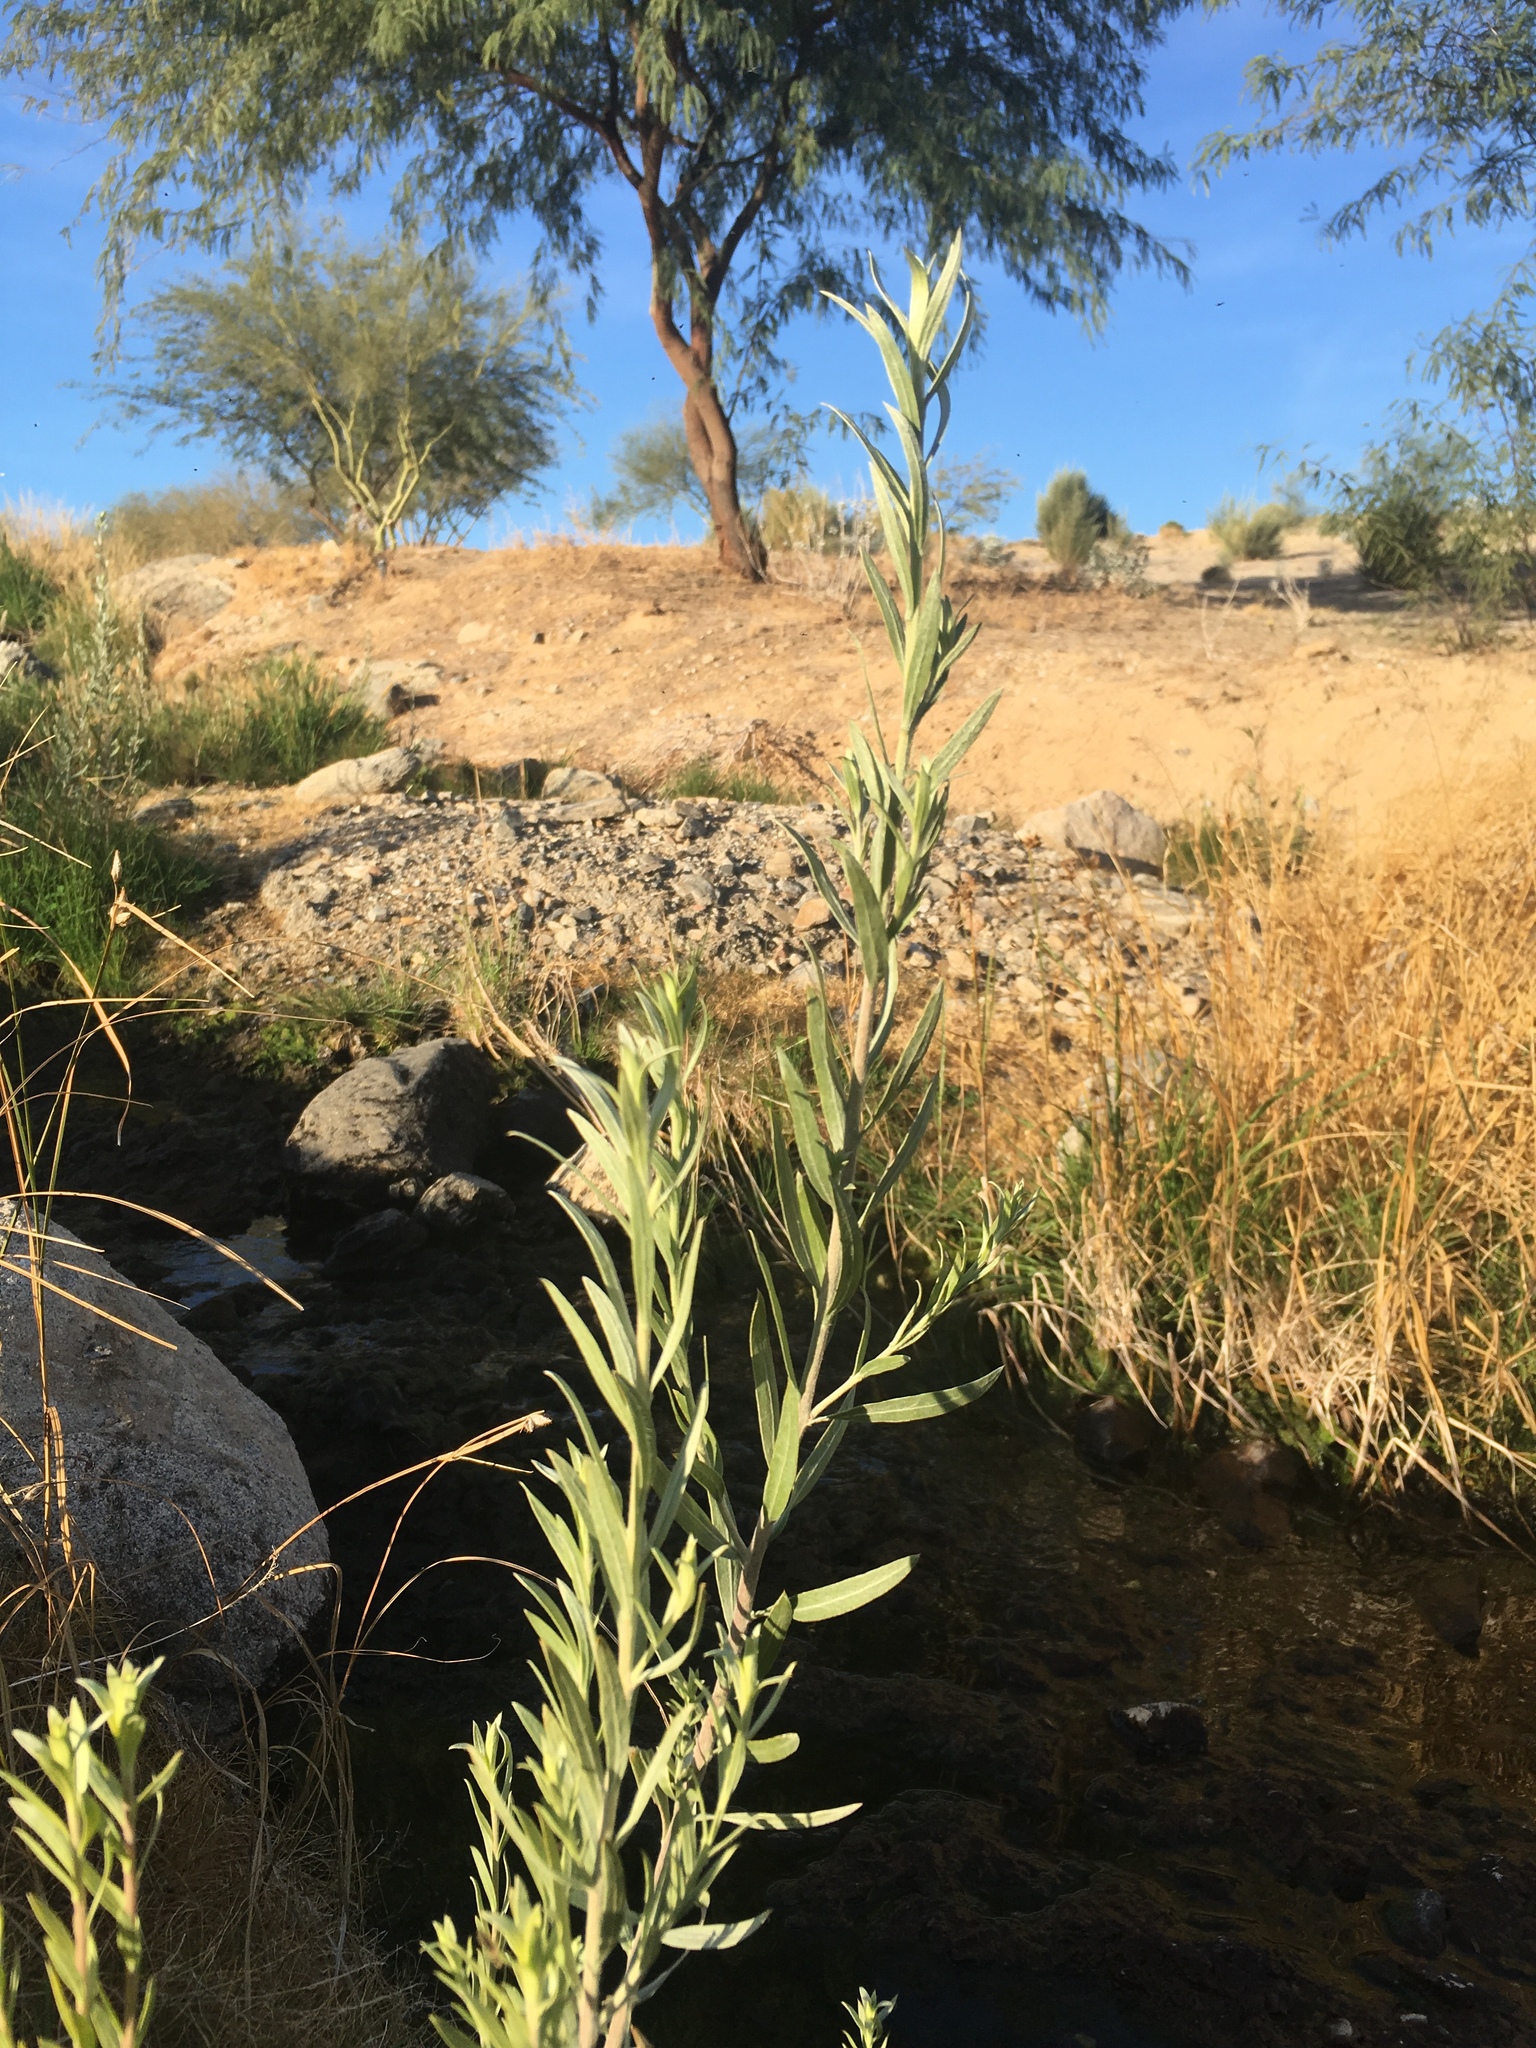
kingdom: Plantae
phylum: Tracheophyta
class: Magnoliopsida
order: Asterales
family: Asteraceae
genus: Pluchea
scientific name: Pluchea sericea
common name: Arrow-weed
